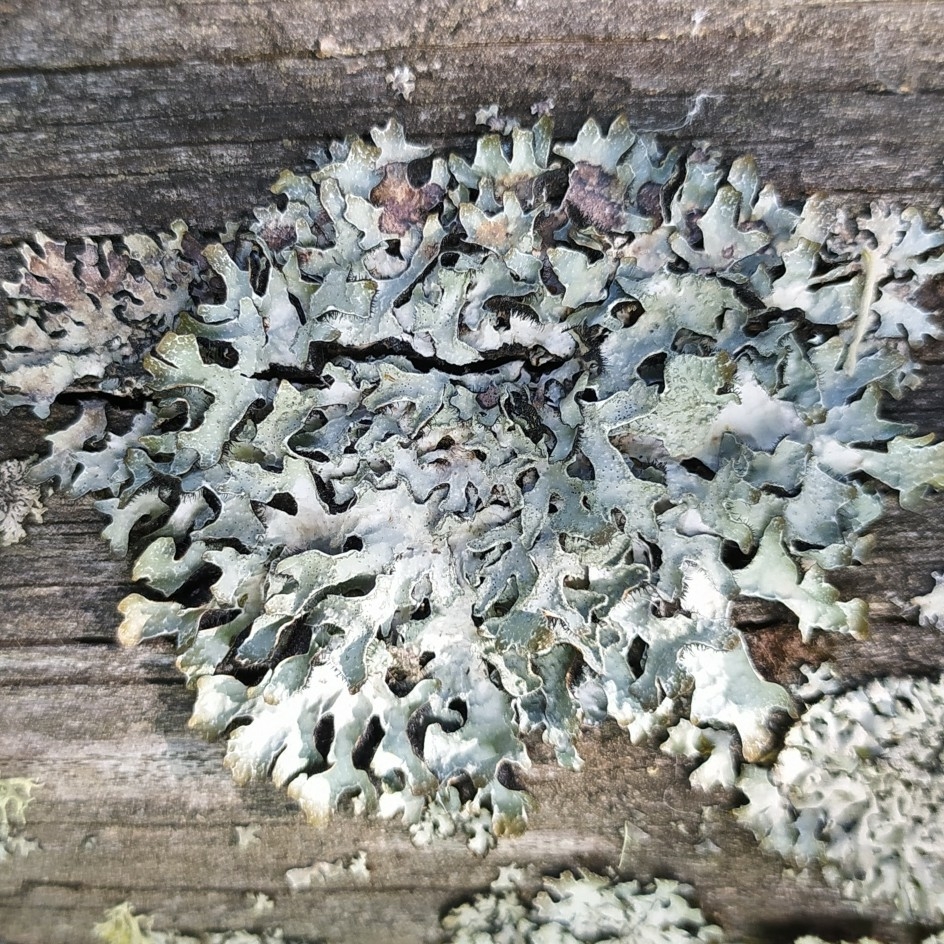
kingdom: Fungi
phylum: Ascomycota
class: Lecanoromycetes
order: Lecanorales
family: Parmeliaceae
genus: Parmelia
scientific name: Parmelia sulcata
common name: Netted shield lichen
